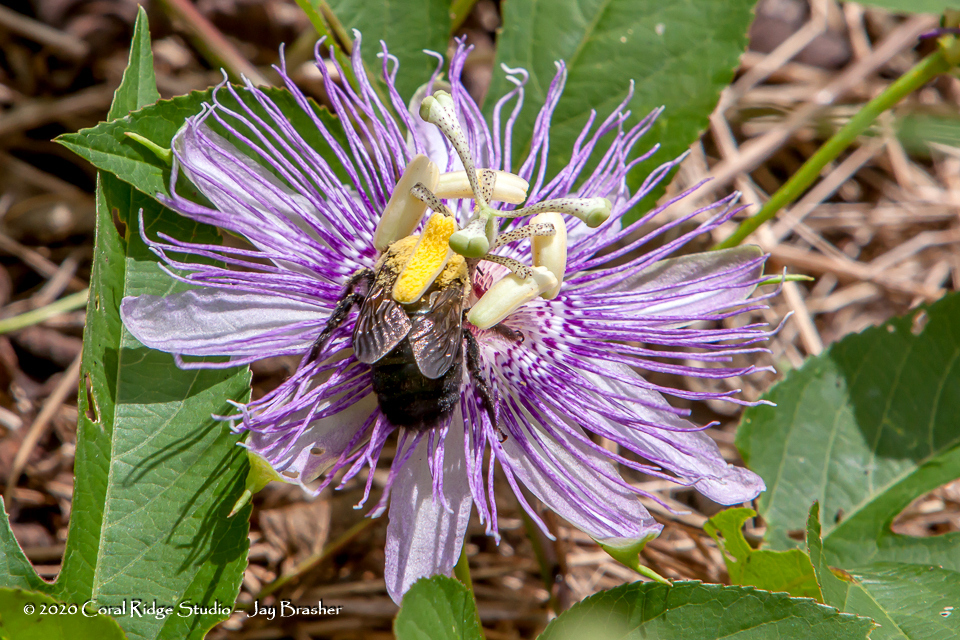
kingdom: Plantae
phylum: Tracheophyta
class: Magnoliopsida
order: Malpighiales
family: Passifloraceae
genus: Passiflora
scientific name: Passiflora incarnata
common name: Apricot-vine
